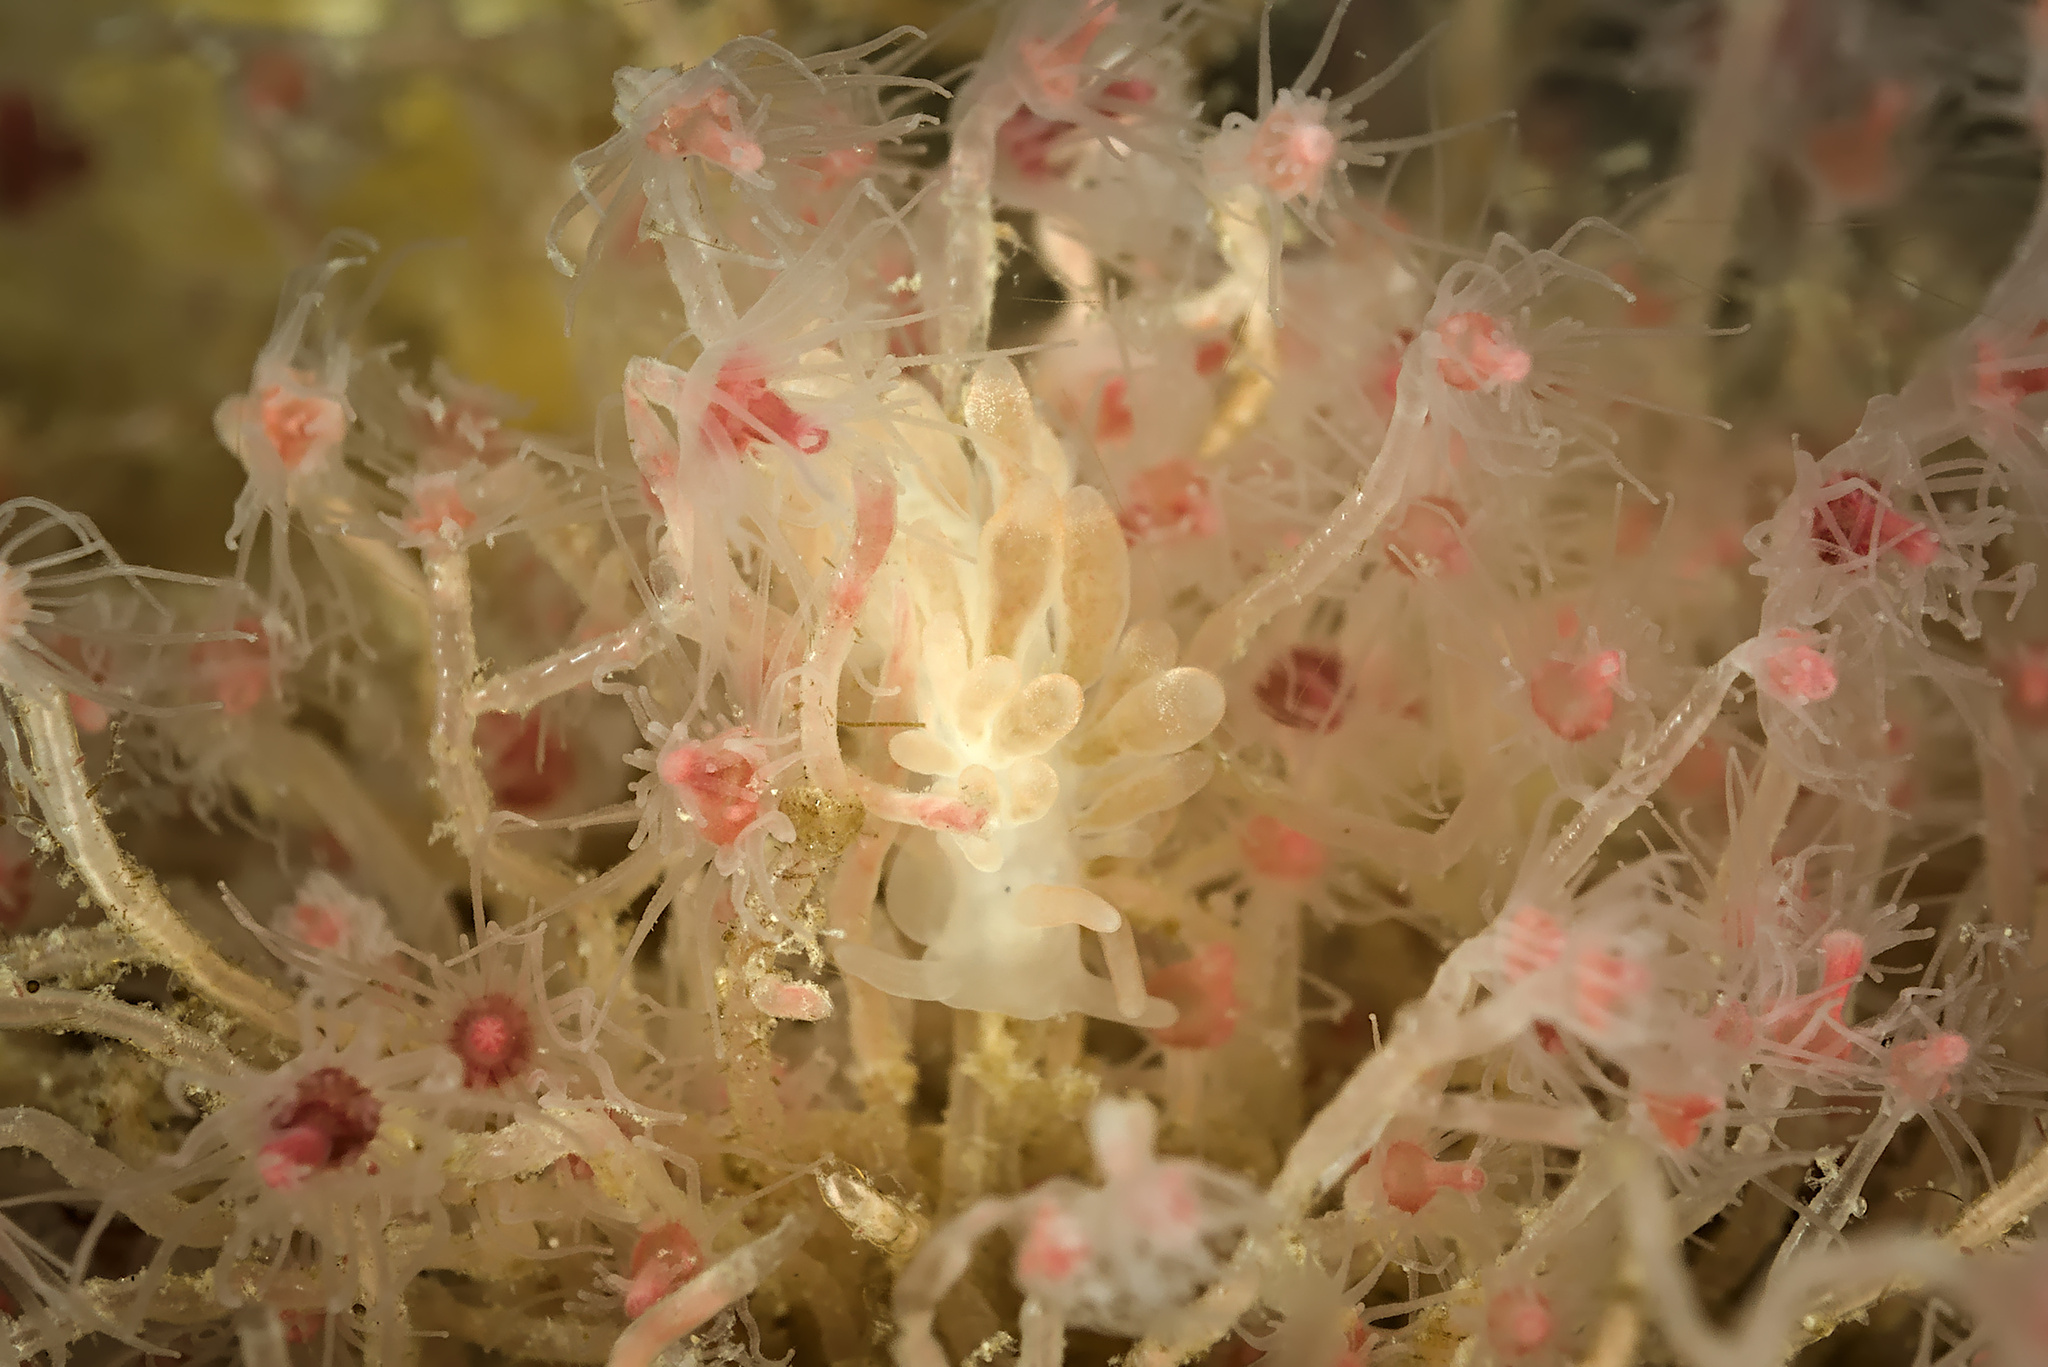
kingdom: Animalia
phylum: Cnidaria
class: Hydrozoa
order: Anthoathecata
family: Tubulariidae
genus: Ectopleura
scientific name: Ectopleura larynx
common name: Ringed tubularia
